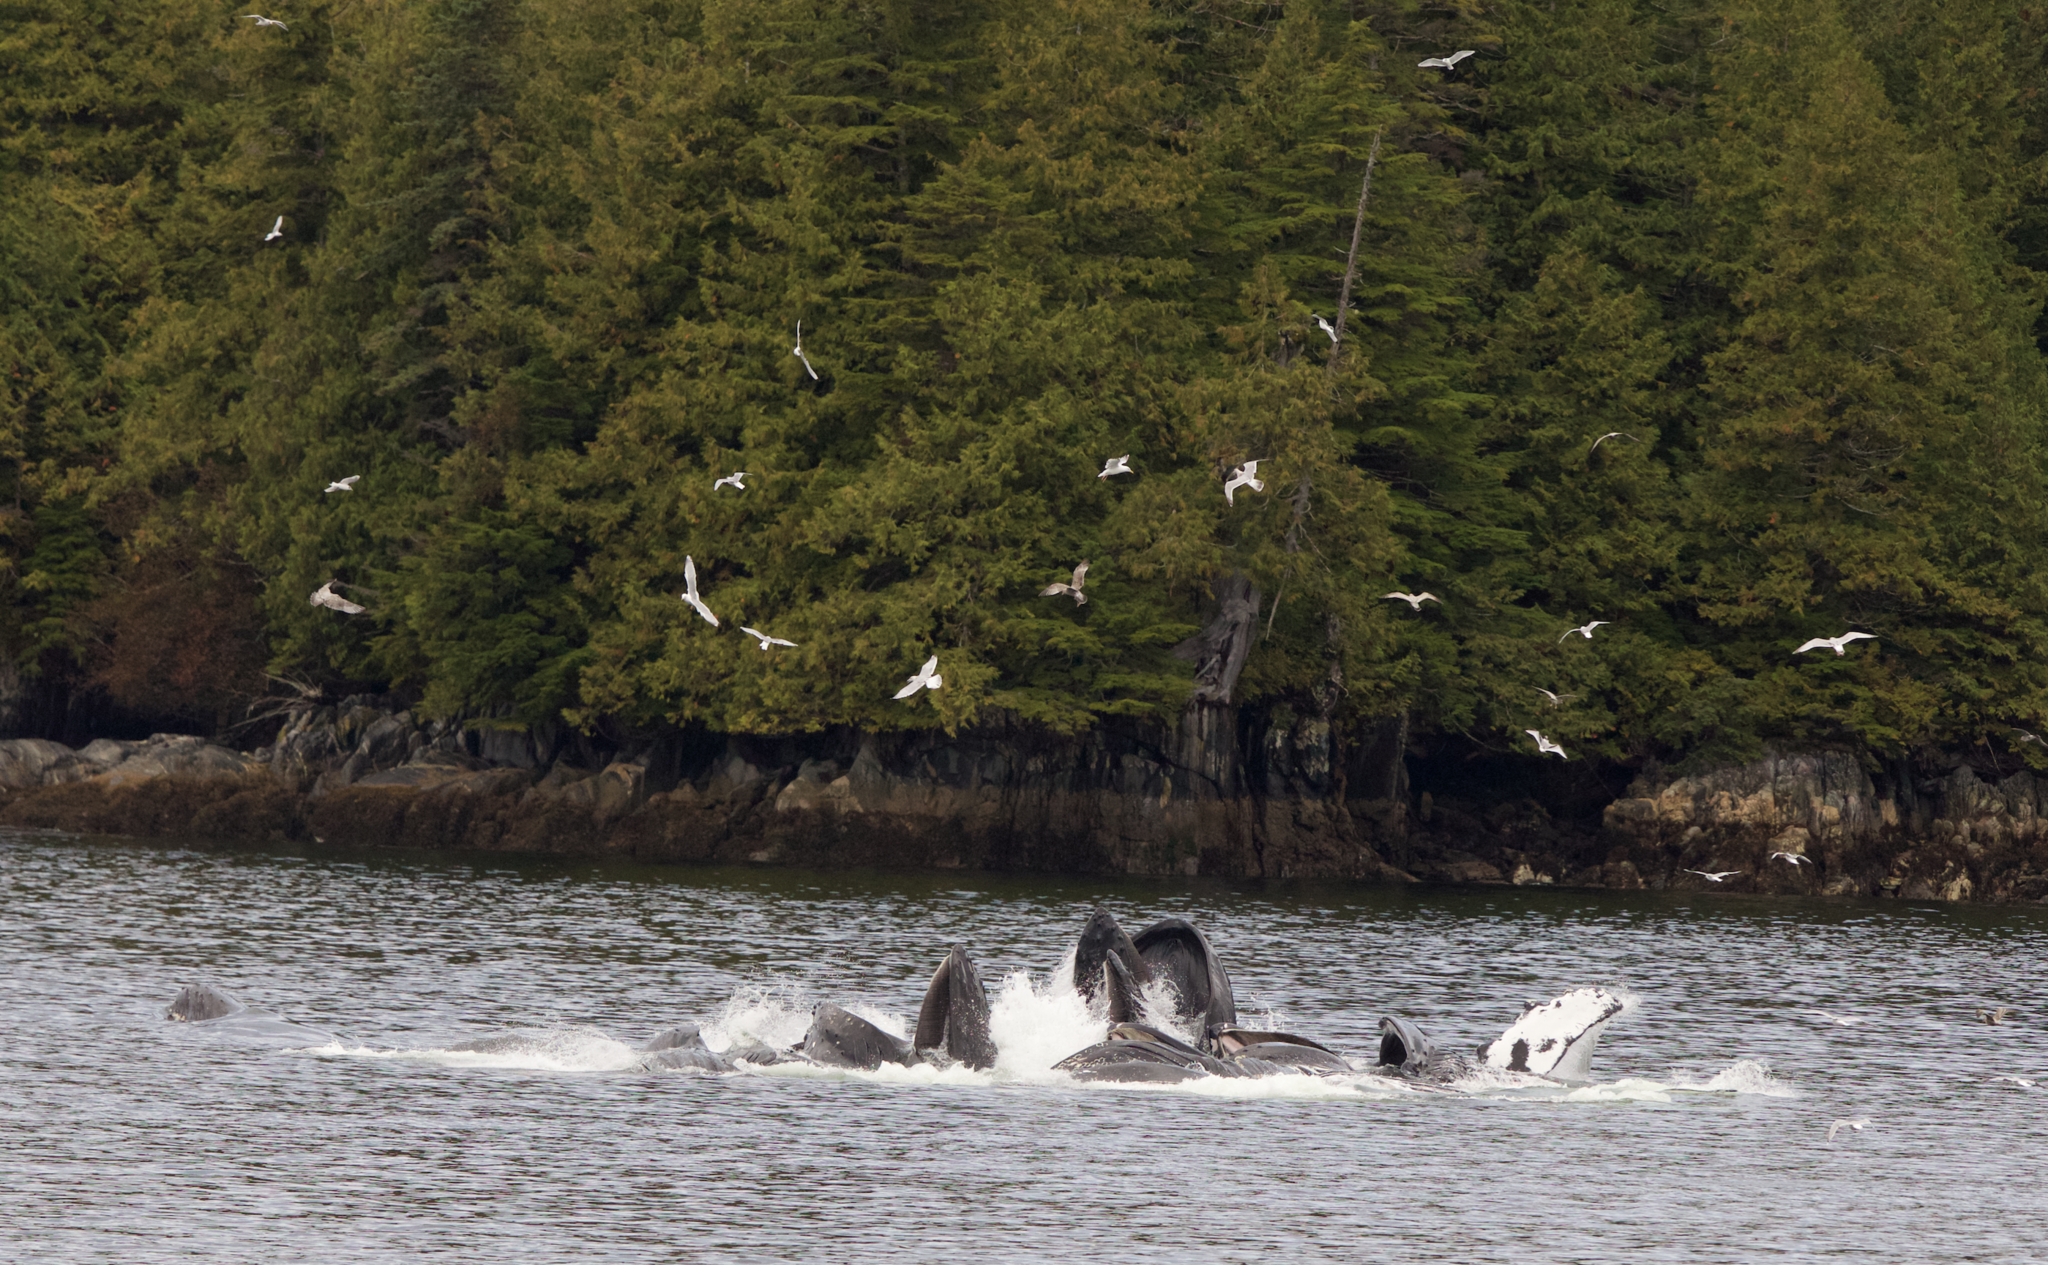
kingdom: Animalia
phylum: Chordata
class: Mammalia
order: Cetacea
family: Balaenopteridae
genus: Megaptera
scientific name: Megaptera novaeangliae
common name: Humpback whale
